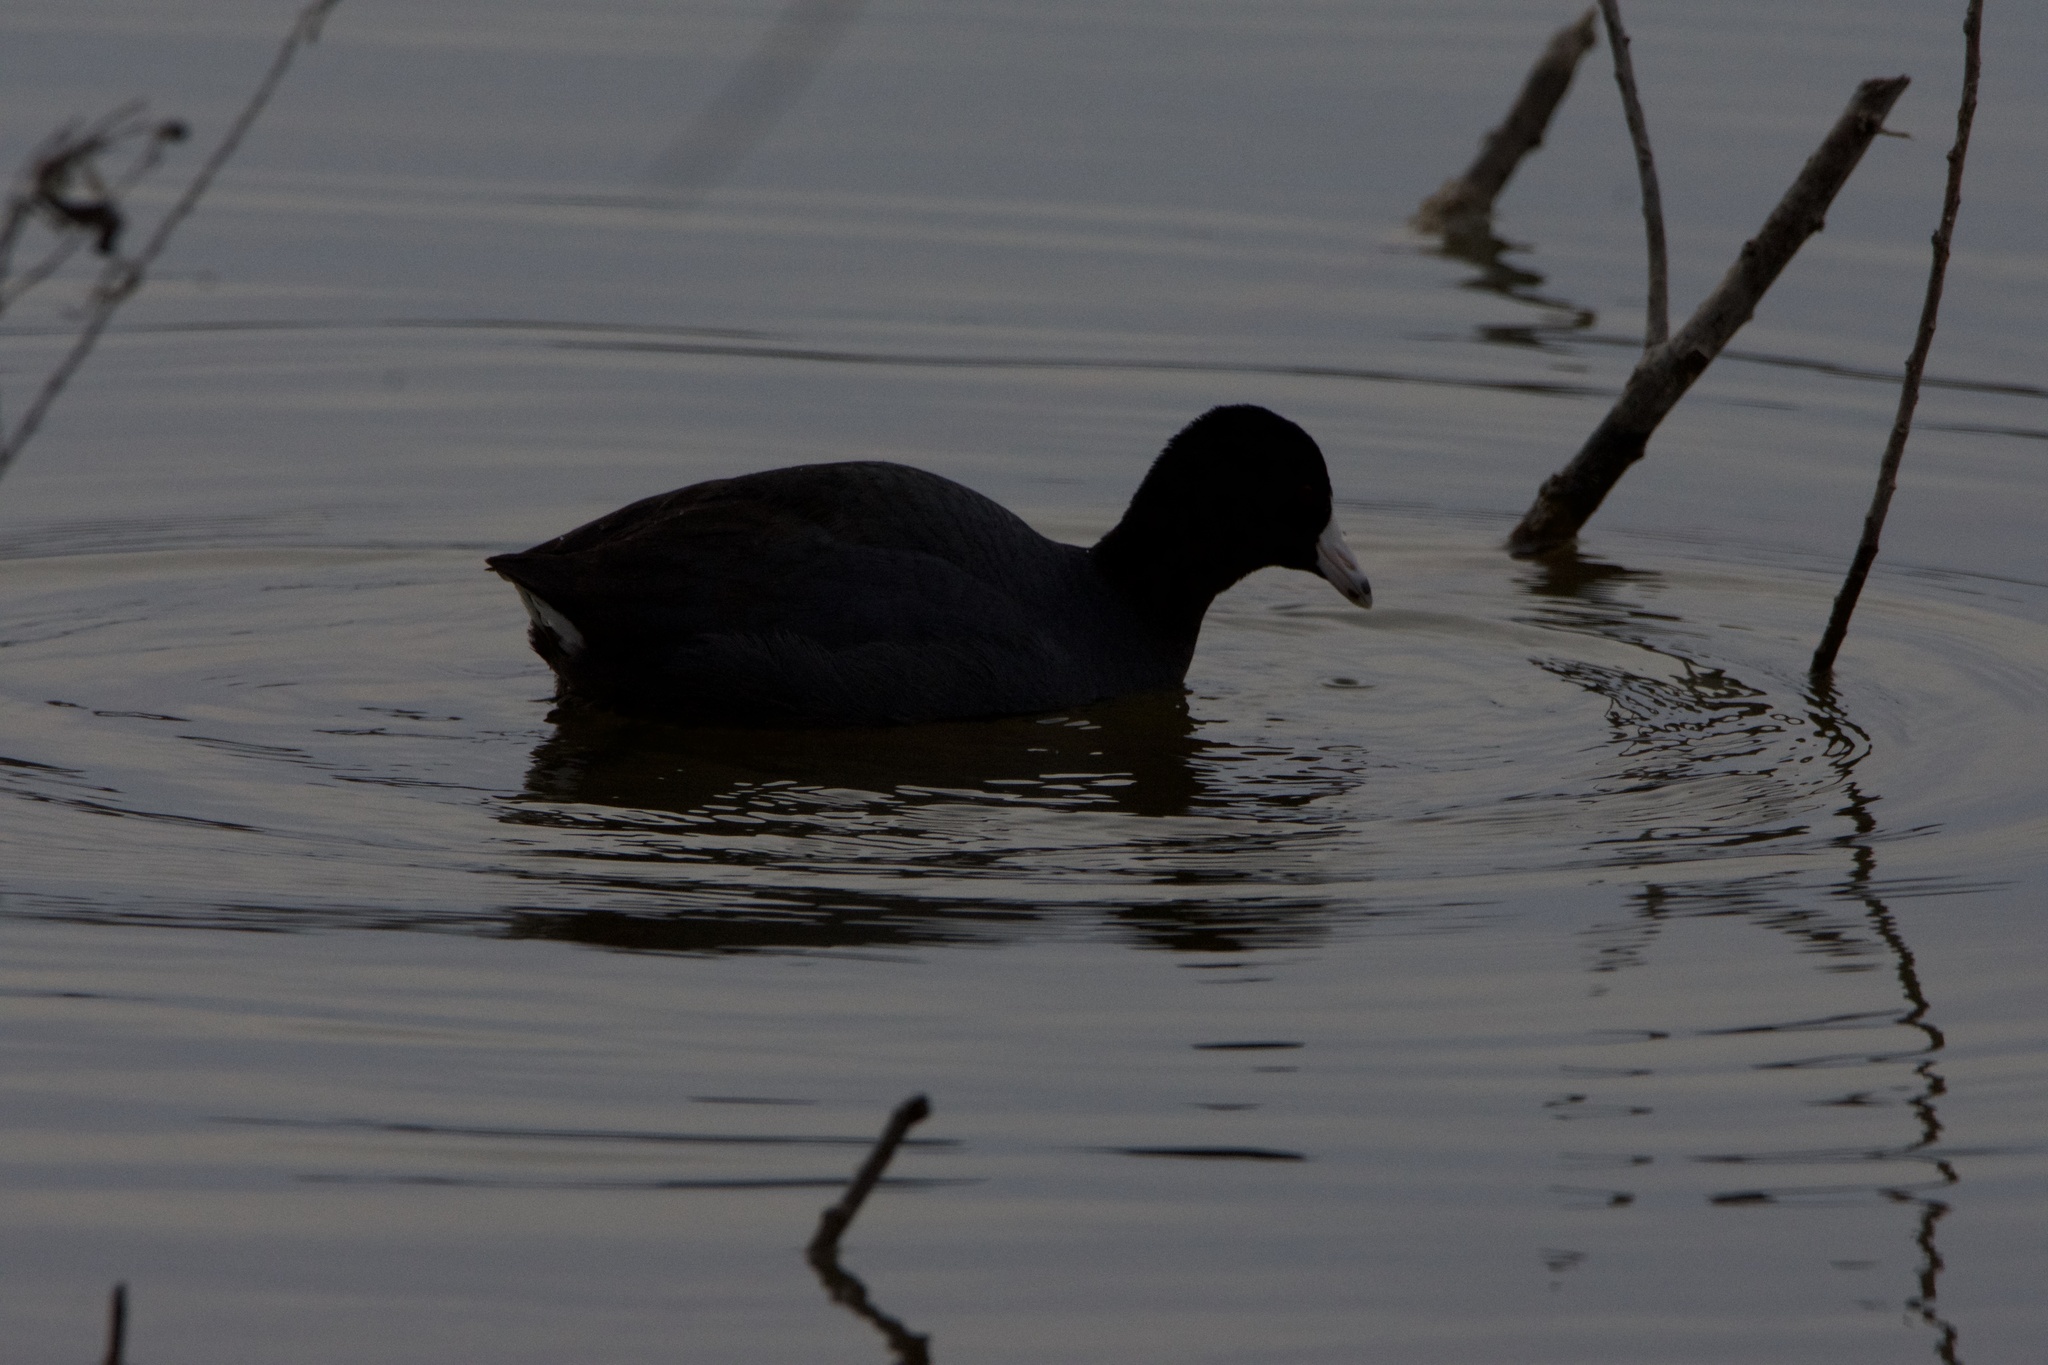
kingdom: Animalia
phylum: Chordata
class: Aves
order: Gruiformes
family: Rallidae
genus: Fulica
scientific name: Fulica americana
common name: American coot
